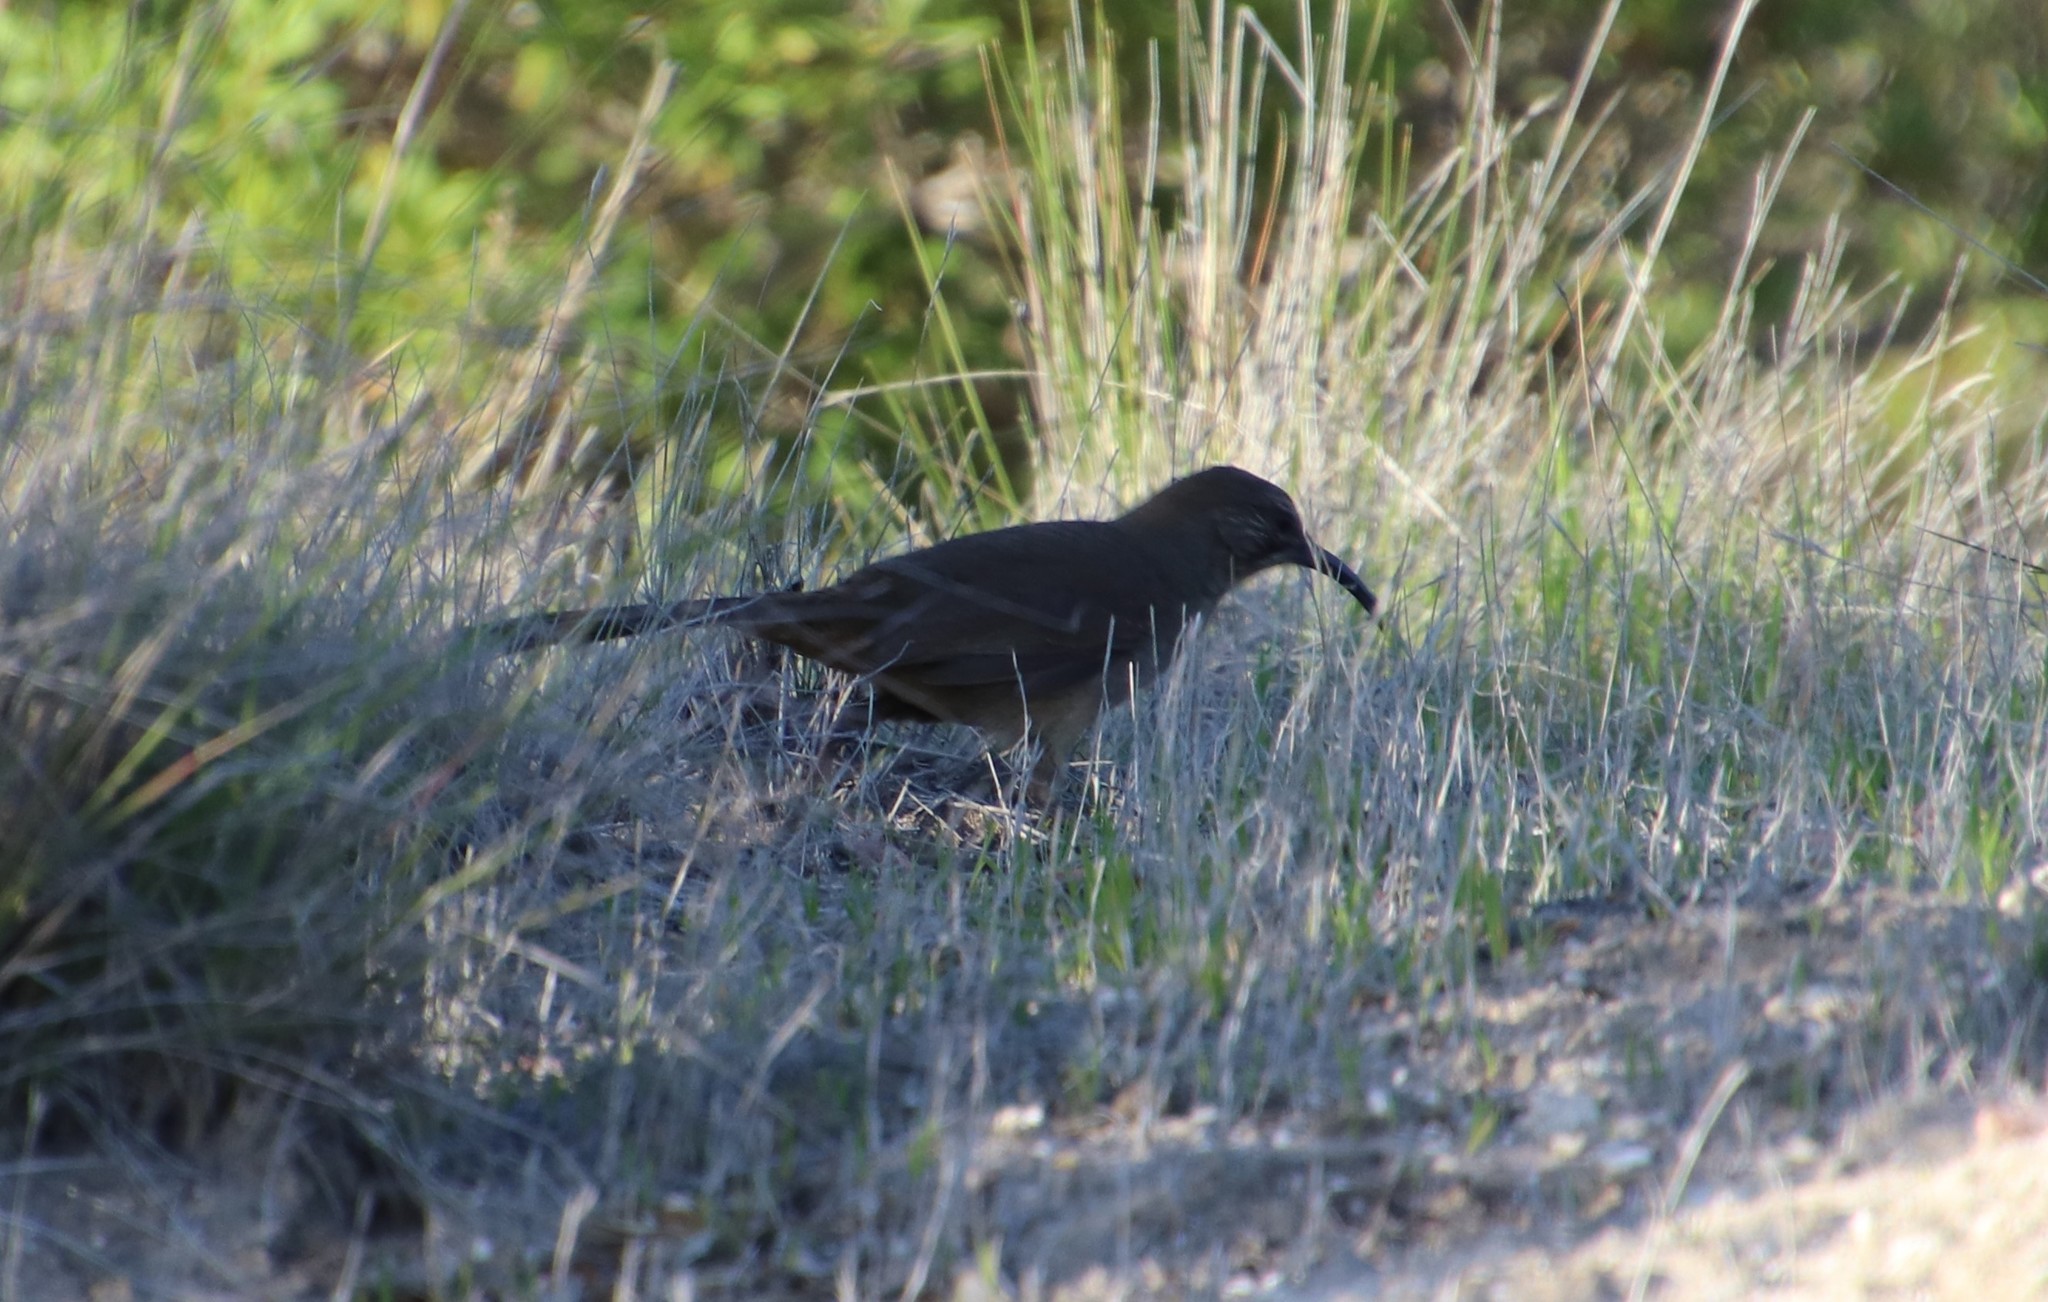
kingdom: Animalia
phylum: Chordata
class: Aves
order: Passeriformes
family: Mimidae
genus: Toxostoma
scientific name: Toxostoma redivivum
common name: California thrasher
